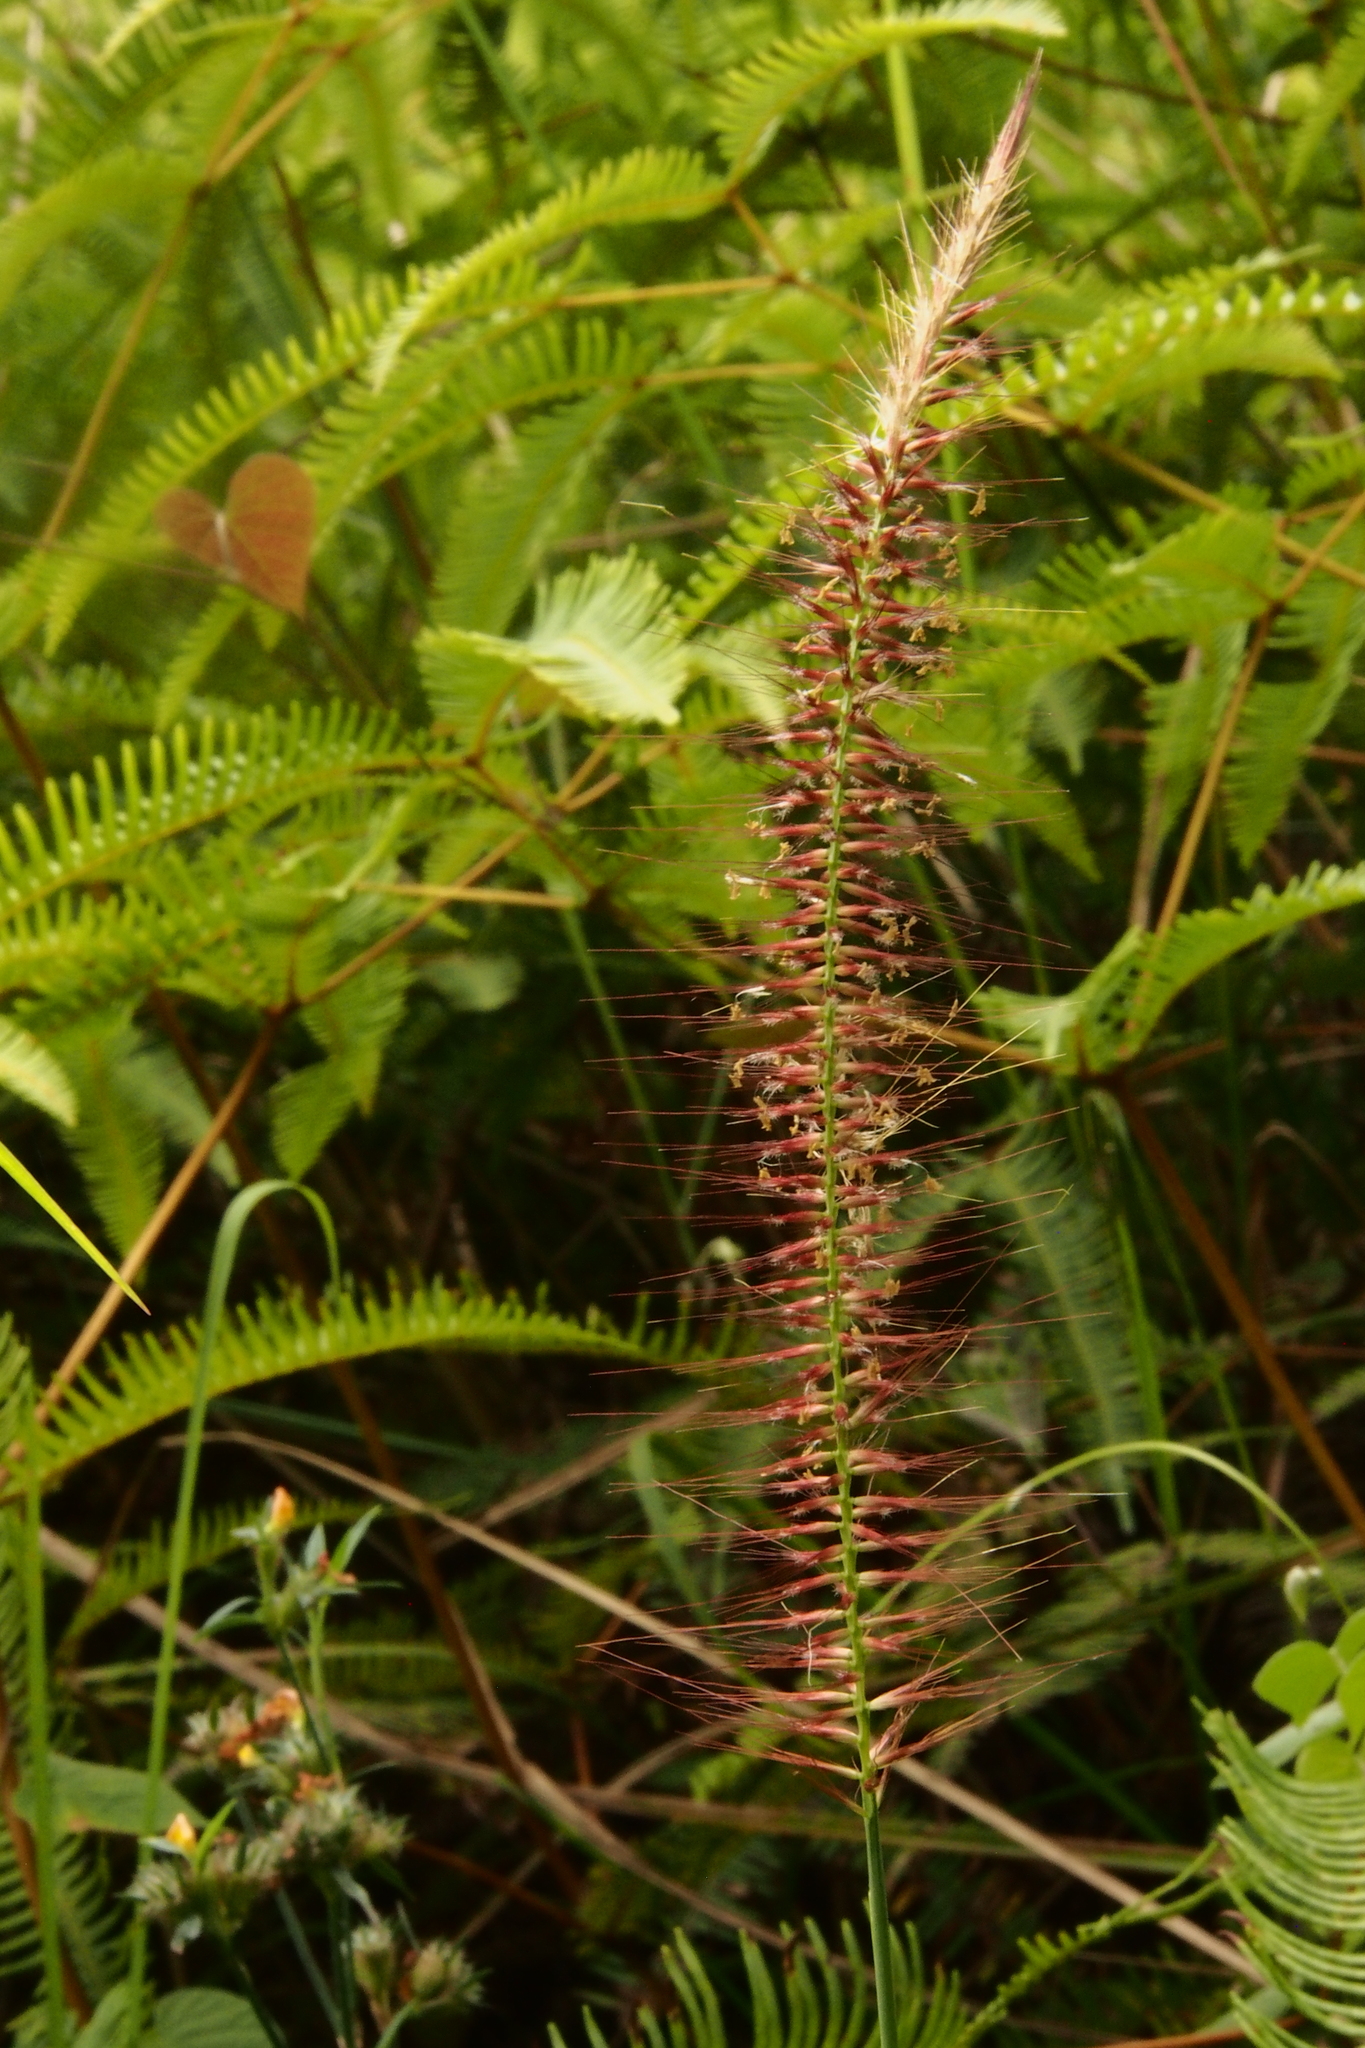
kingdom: Plantae
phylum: Tracheophyta
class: Liliopsida
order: Poales
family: Poaceae
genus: Cenchrus
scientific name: Cenchrus setosus
